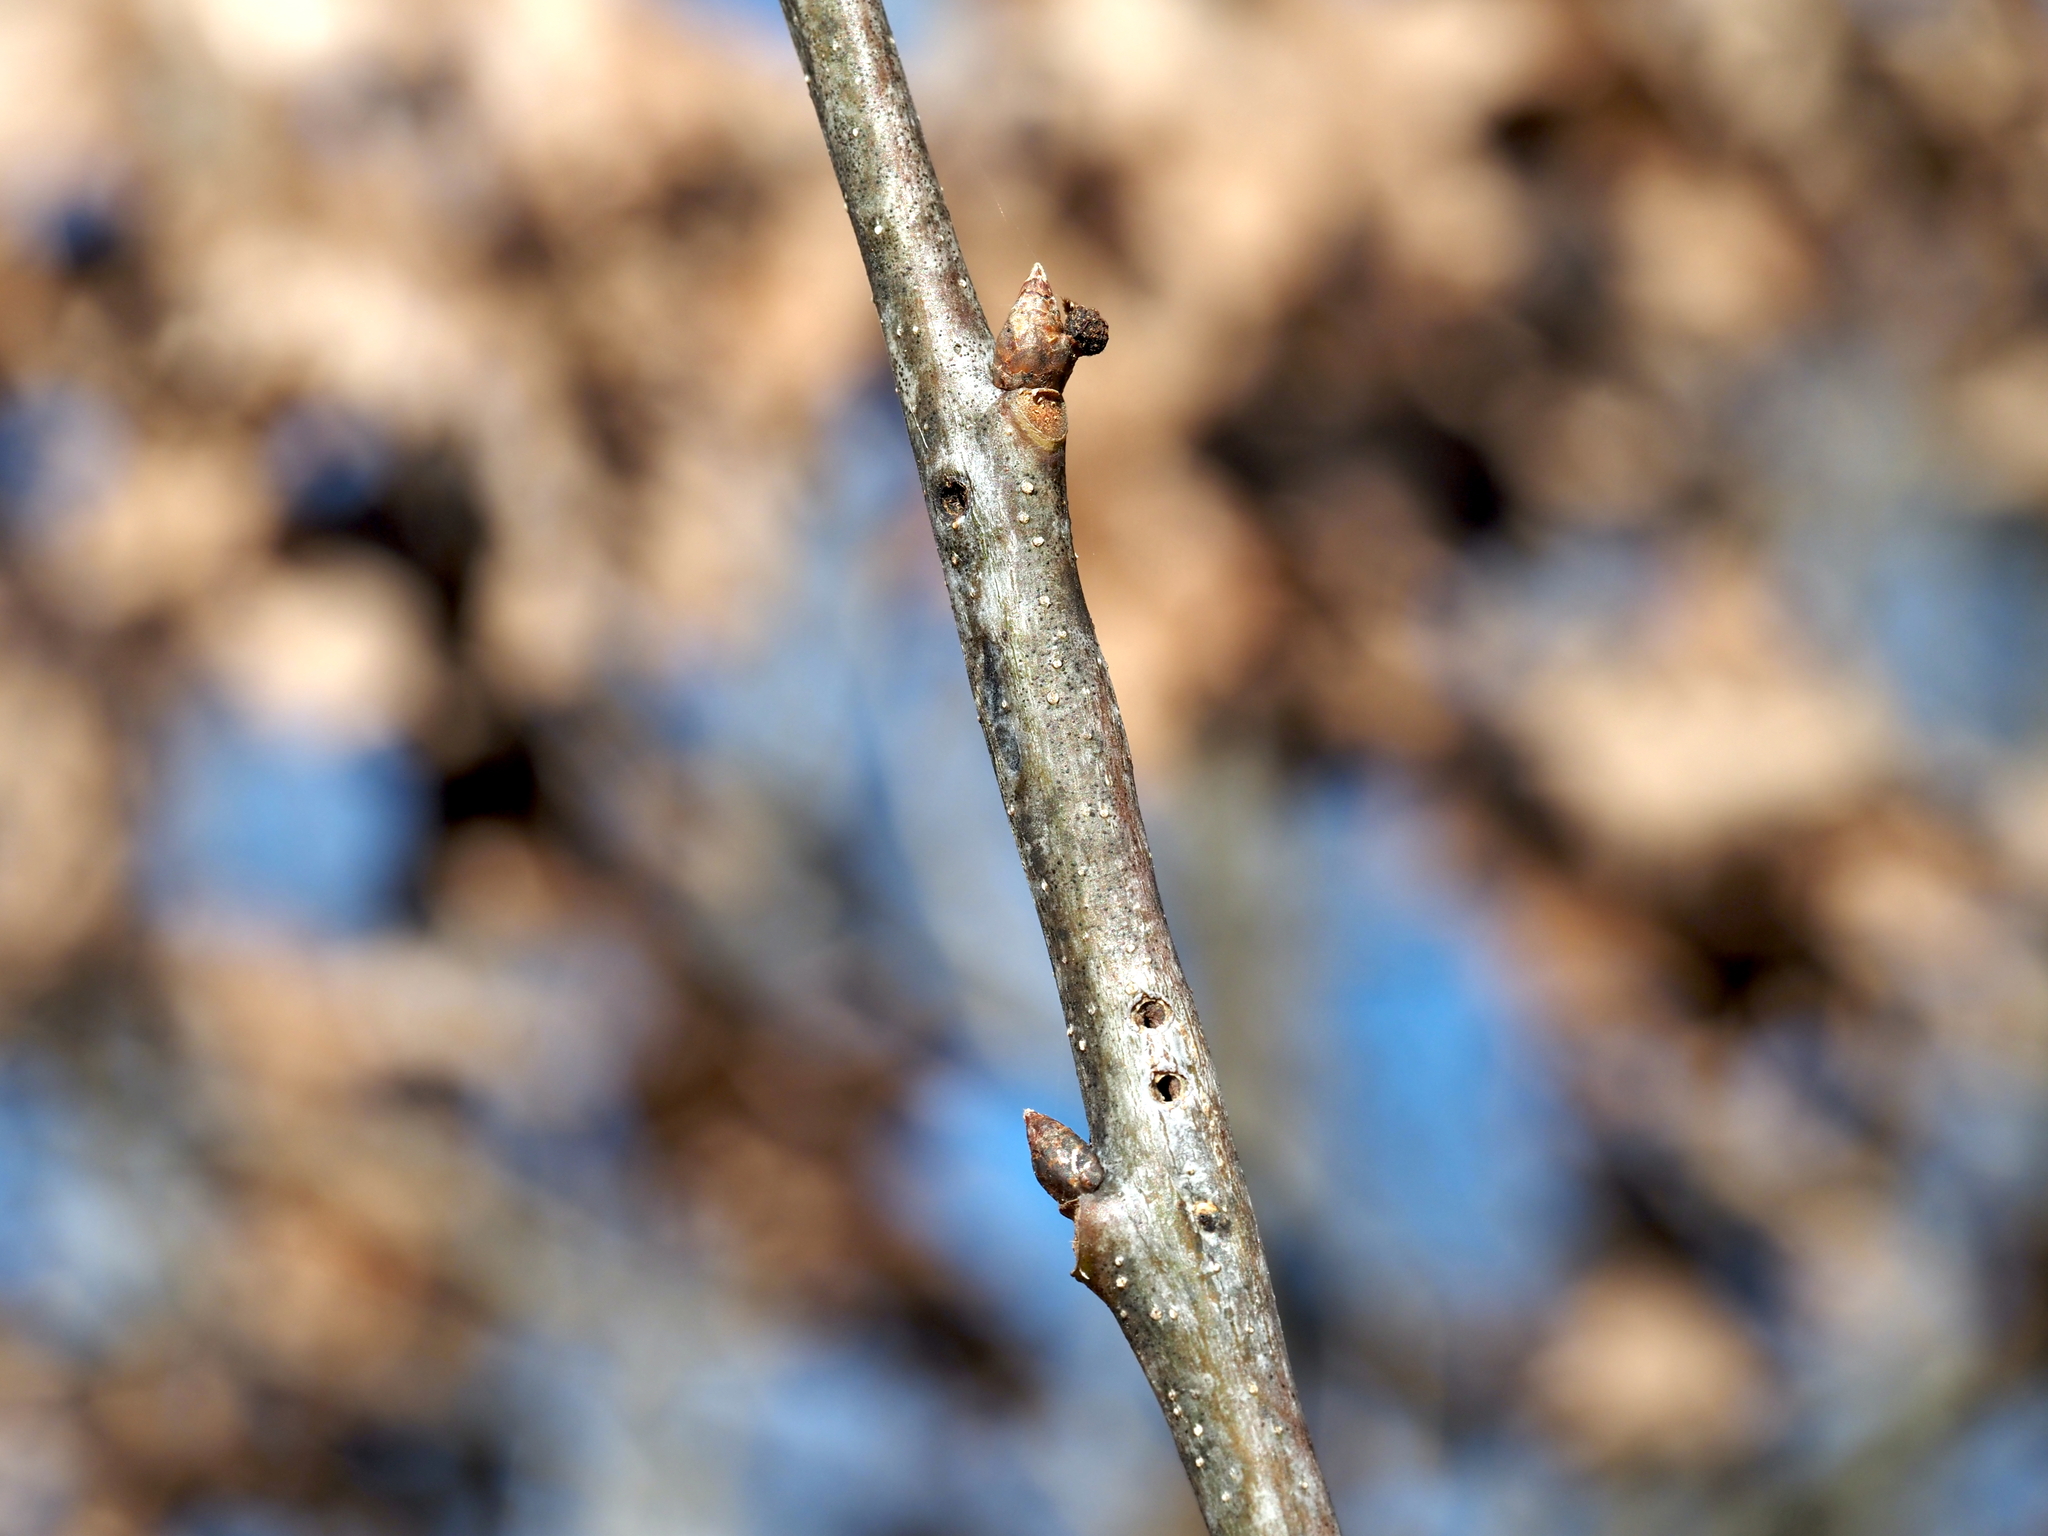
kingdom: Animalia
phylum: Arthropoda
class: Insecta
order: Hymenoptera
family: Cynipidae
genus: Callirhytis
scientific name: Callirhytis
